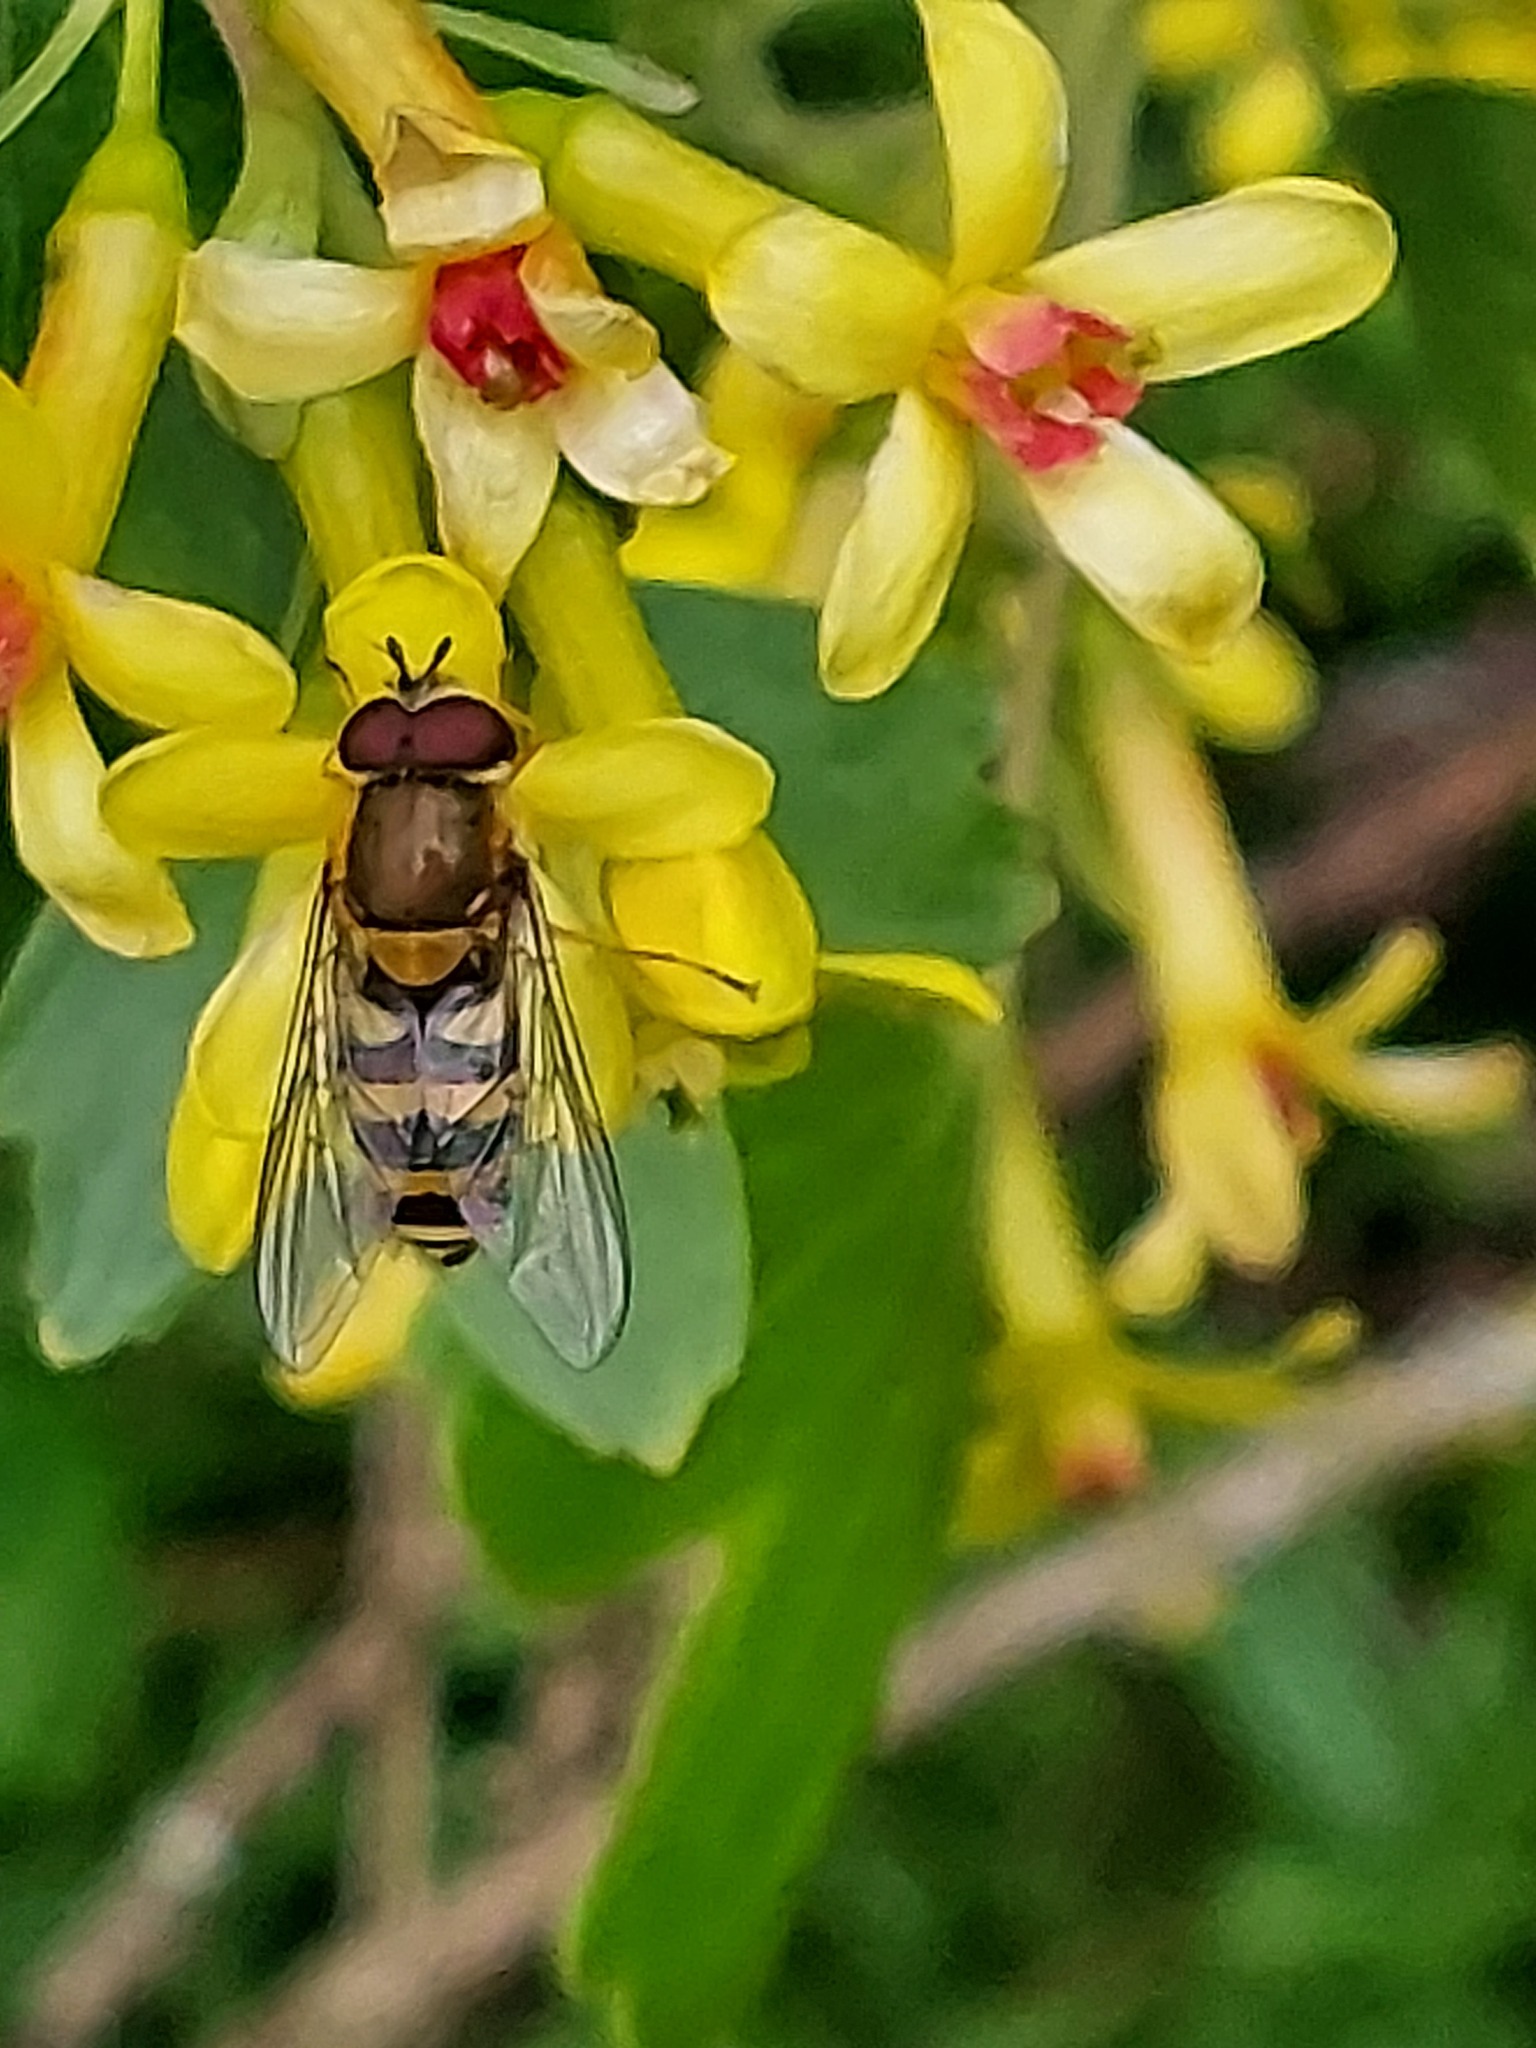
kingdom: Animalia
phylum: Arthropoda
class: Insecta
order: Diptera
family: Syrphidae
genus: Syrphus
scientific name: Syrphus
